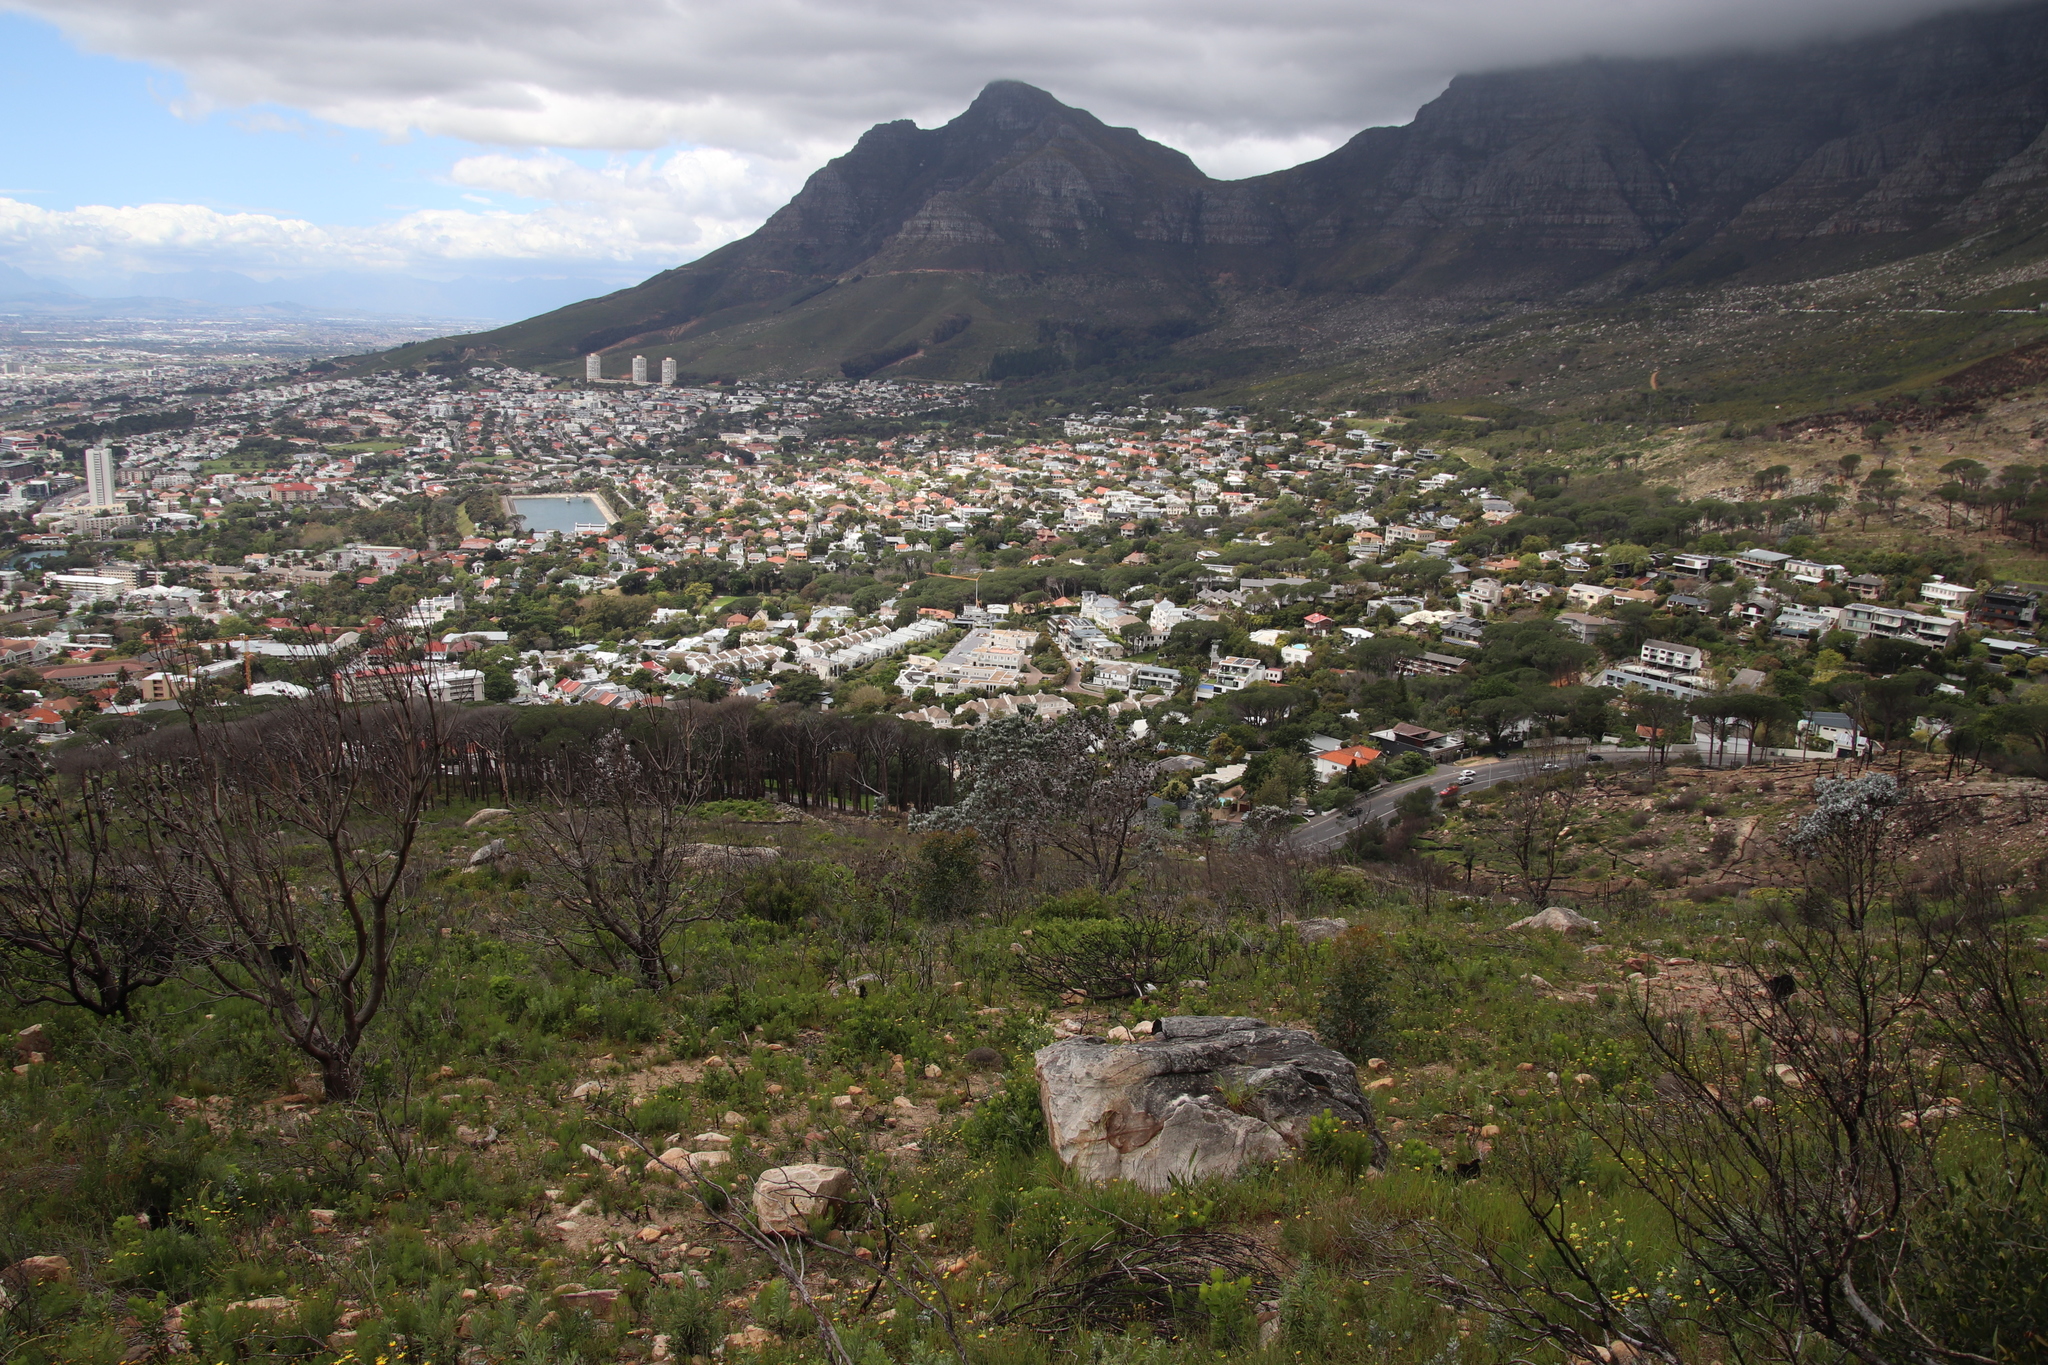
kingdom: Plantae
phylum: Tracheophyta
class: Magnoliopsida
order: Proteales
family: Proteaceae
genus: Leucadendron
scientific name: Leucadendron argenteum
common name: Cape silver tree
